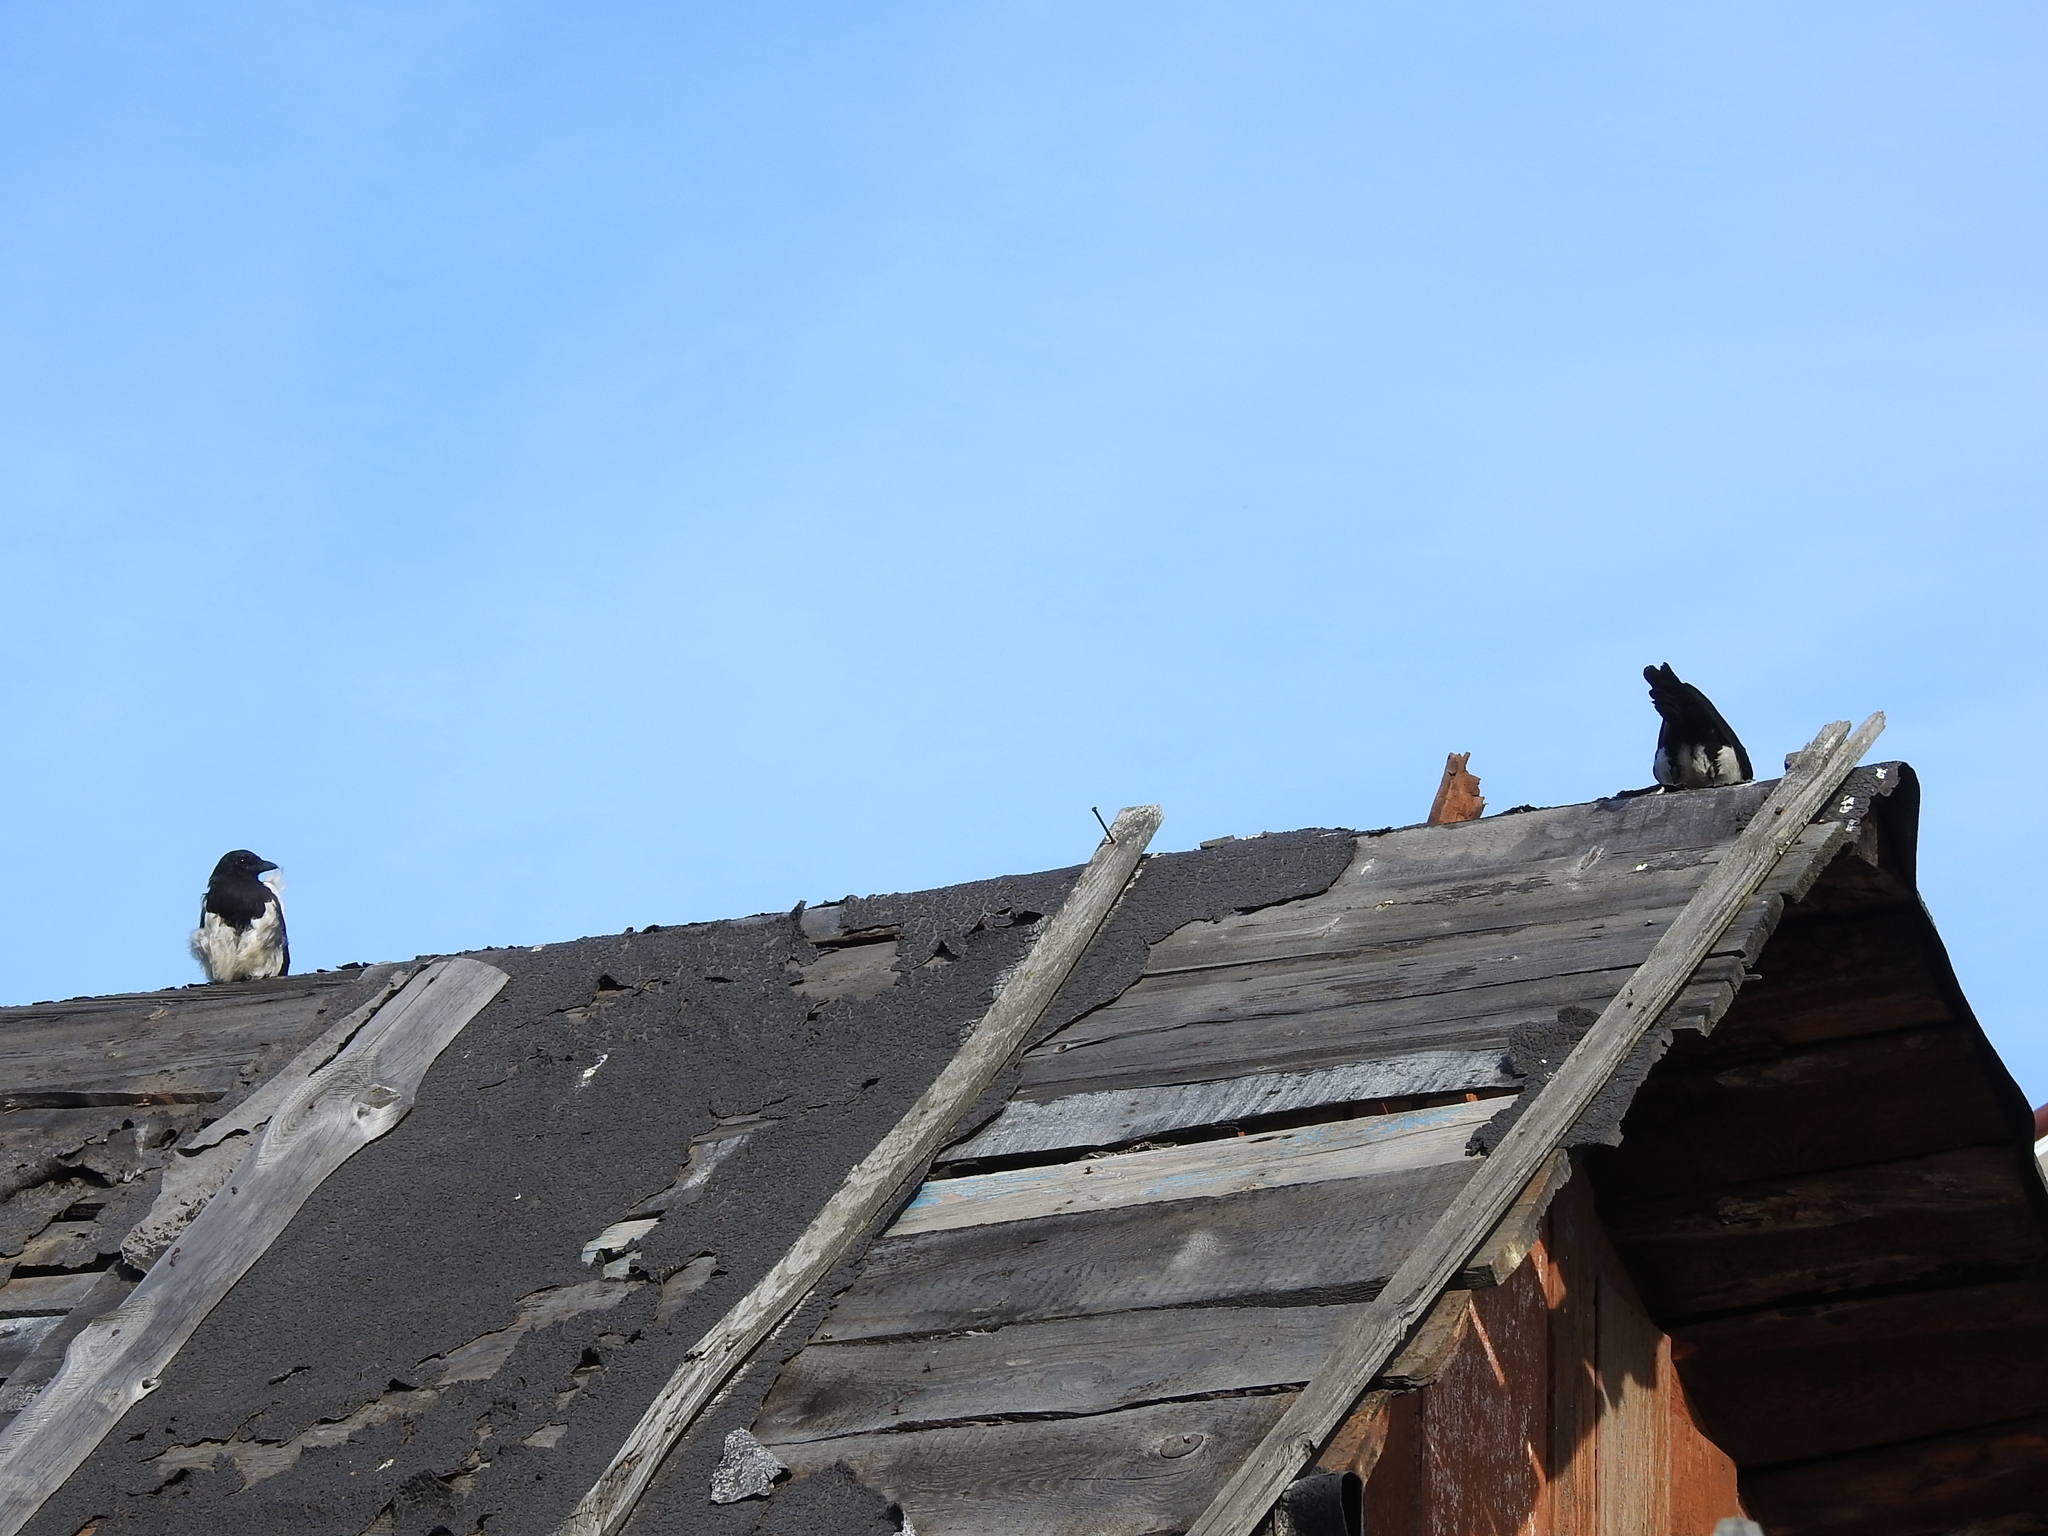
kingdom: Animalia
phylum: Chordata
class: Aves
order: Passeriformes
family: Corvidae
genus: Pica
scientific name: Pica pica
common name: Eurasian magpie
